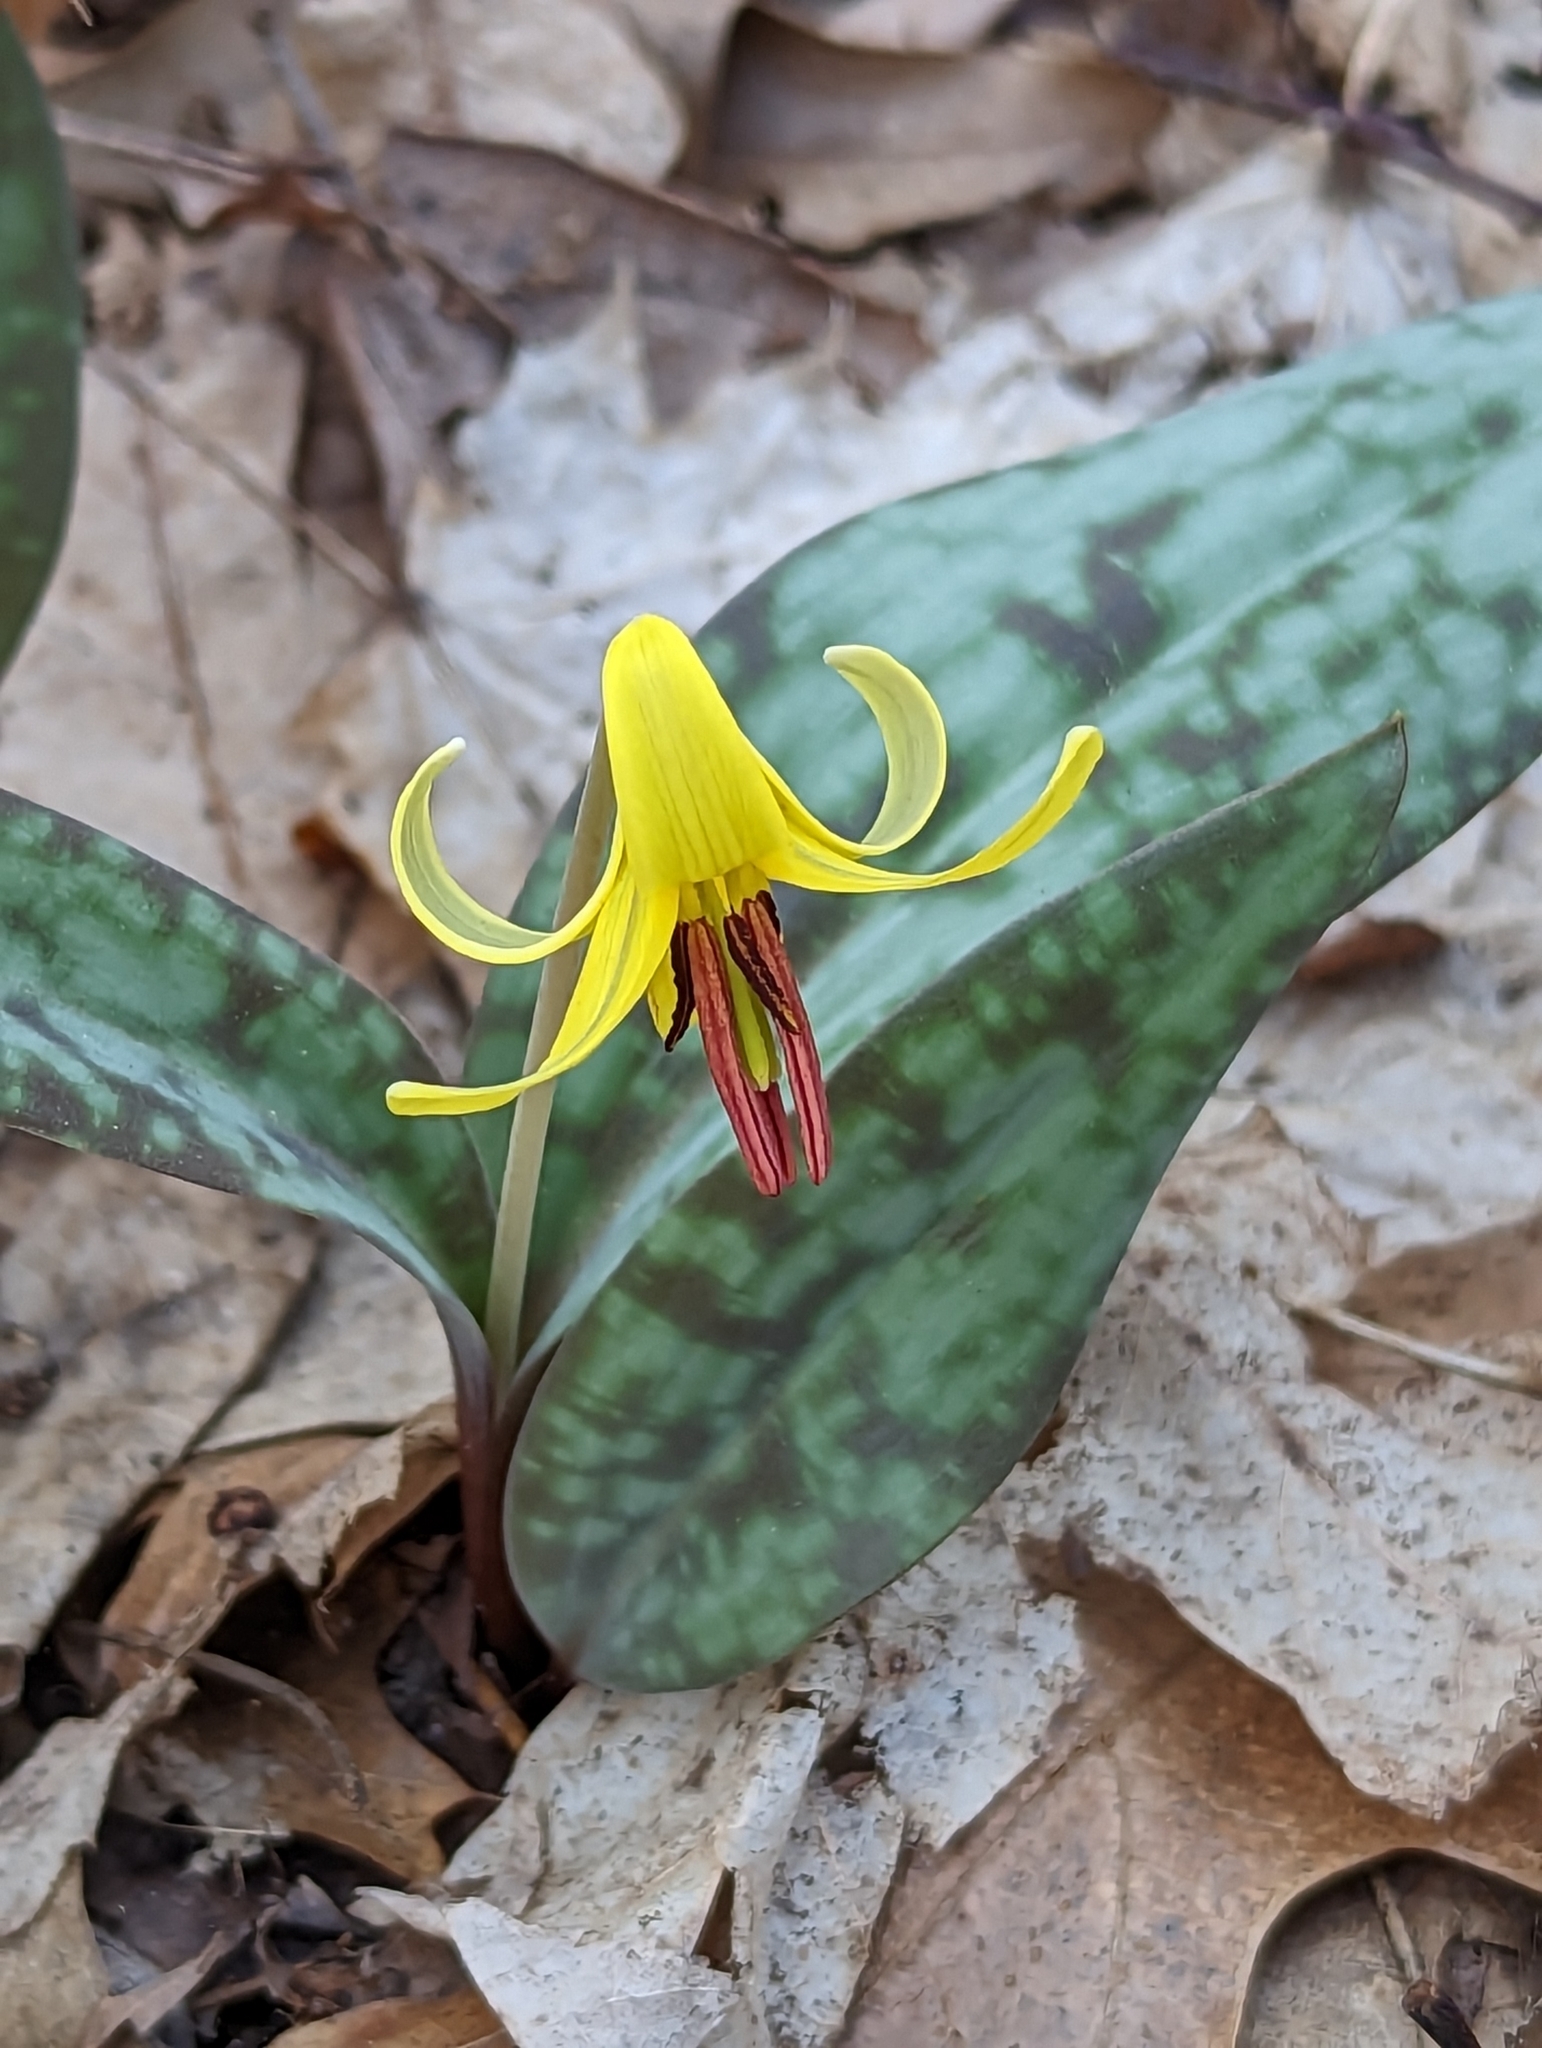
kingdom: Plantae
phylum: Tracheophyta
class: Liliopsida
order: Liliales
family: Liliaceae
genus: Erythronium
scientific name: Erythronium americanum
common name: Yellow adder's-tongue
